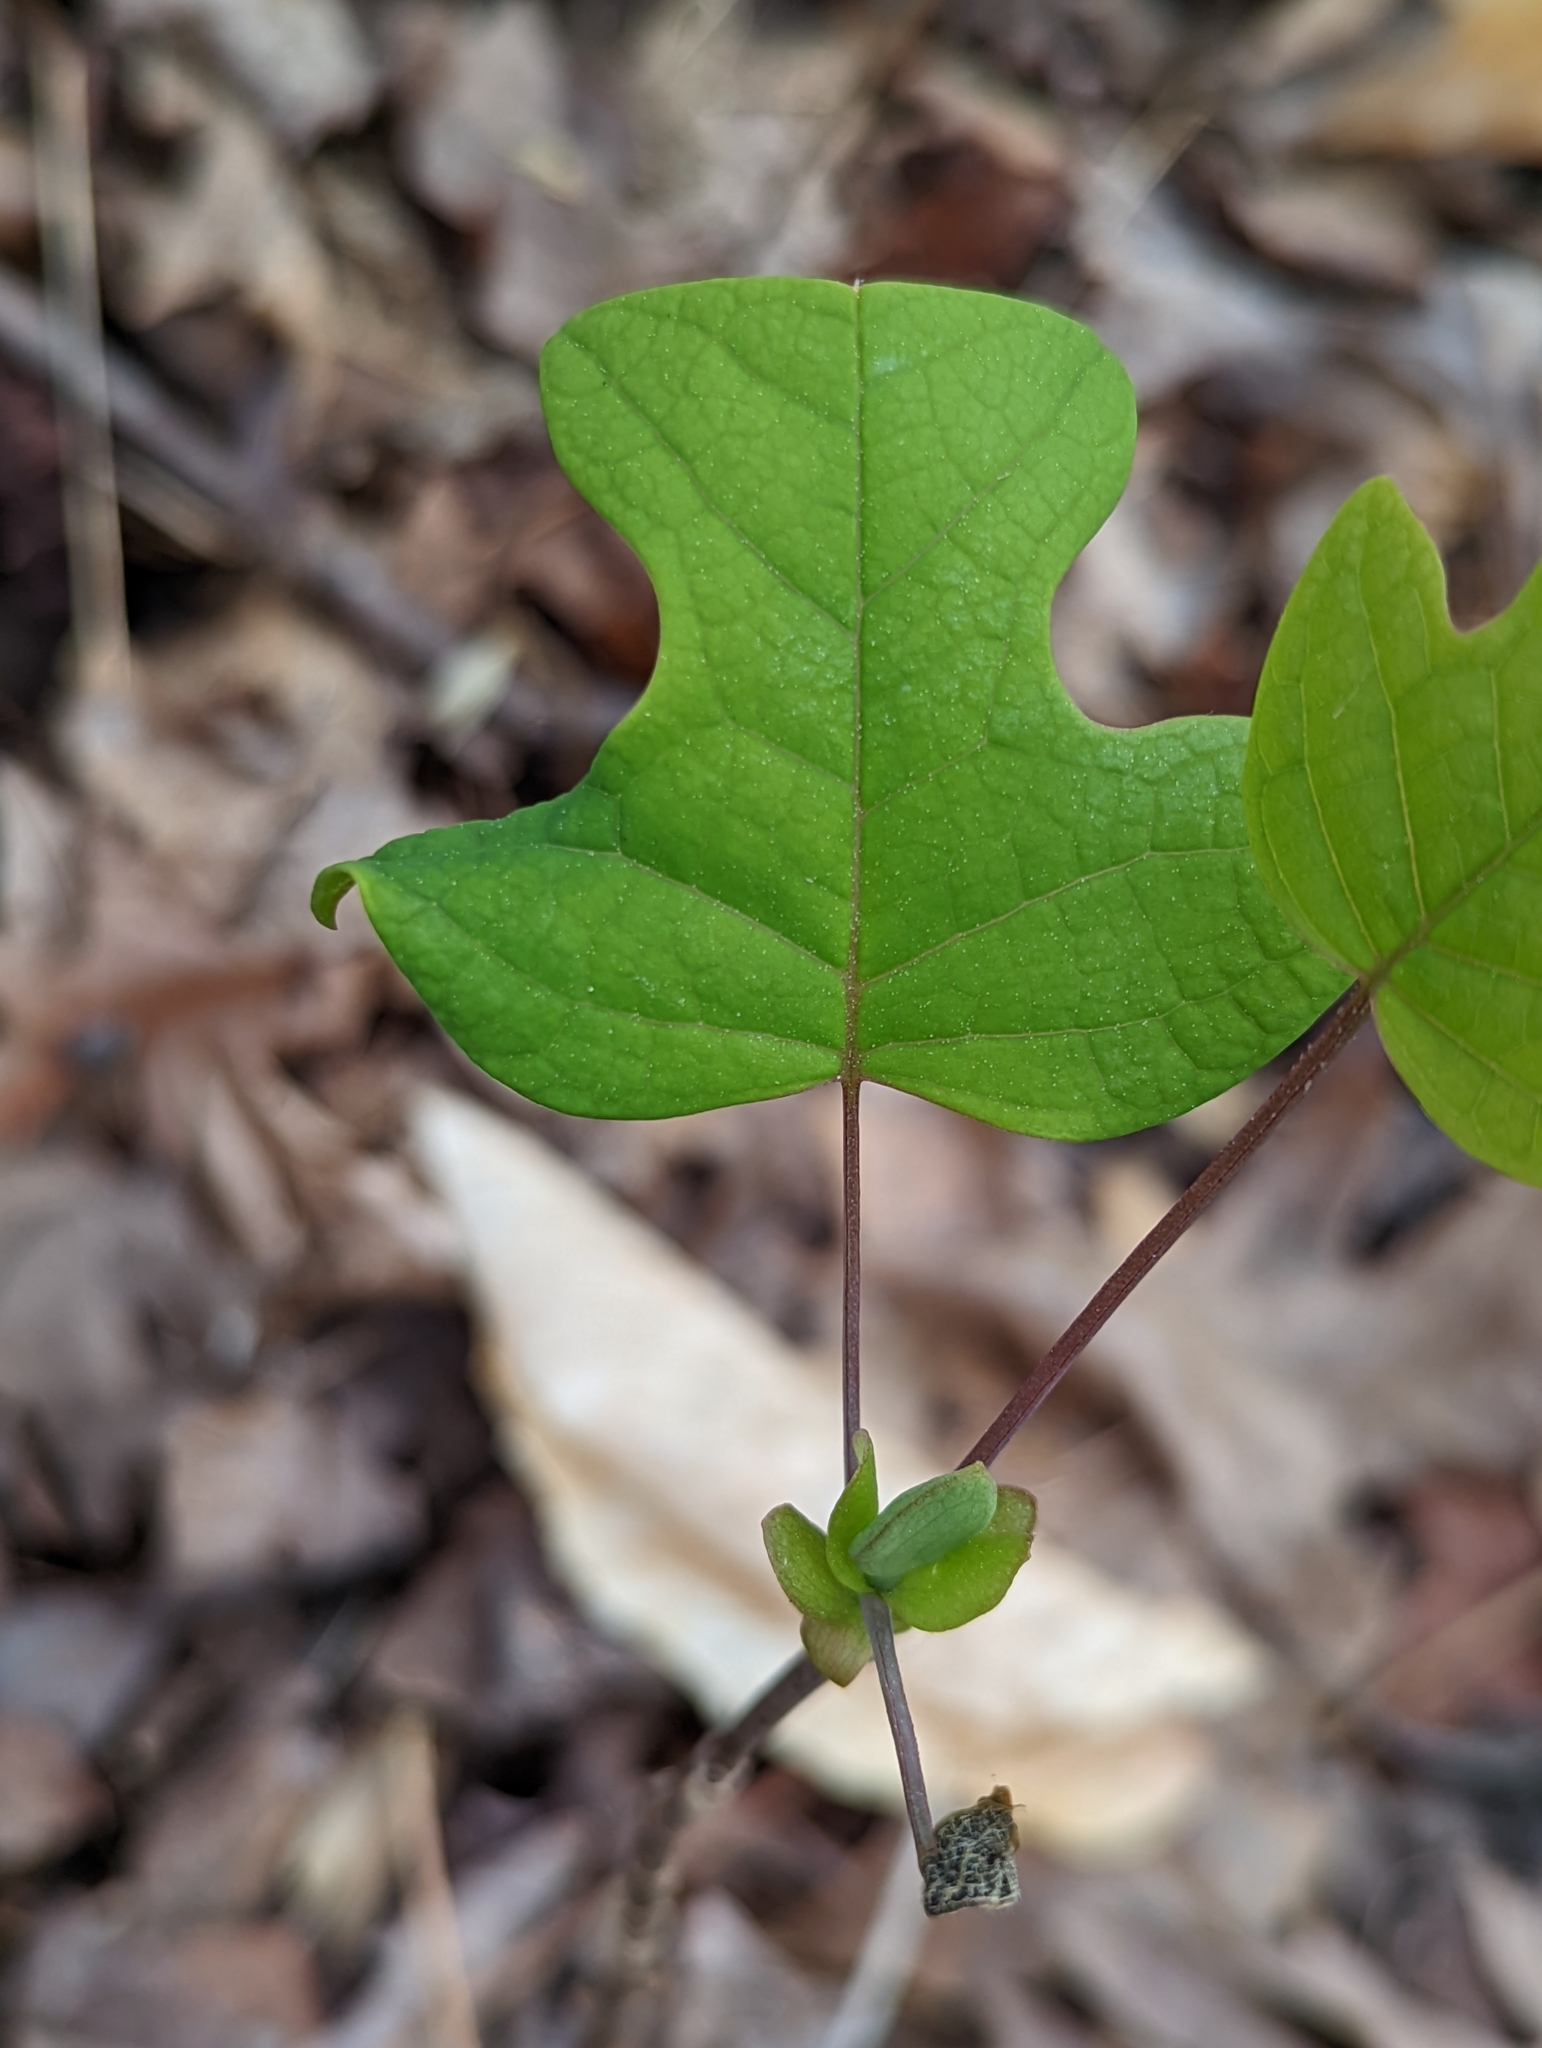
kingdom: Plantae
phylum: Tracheophyta
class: Magnoliopsida
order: Magnoliales
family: Magnoliaceae
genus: Liriodendron
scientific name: Liriodendron tulipifera
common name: Tulip tree
